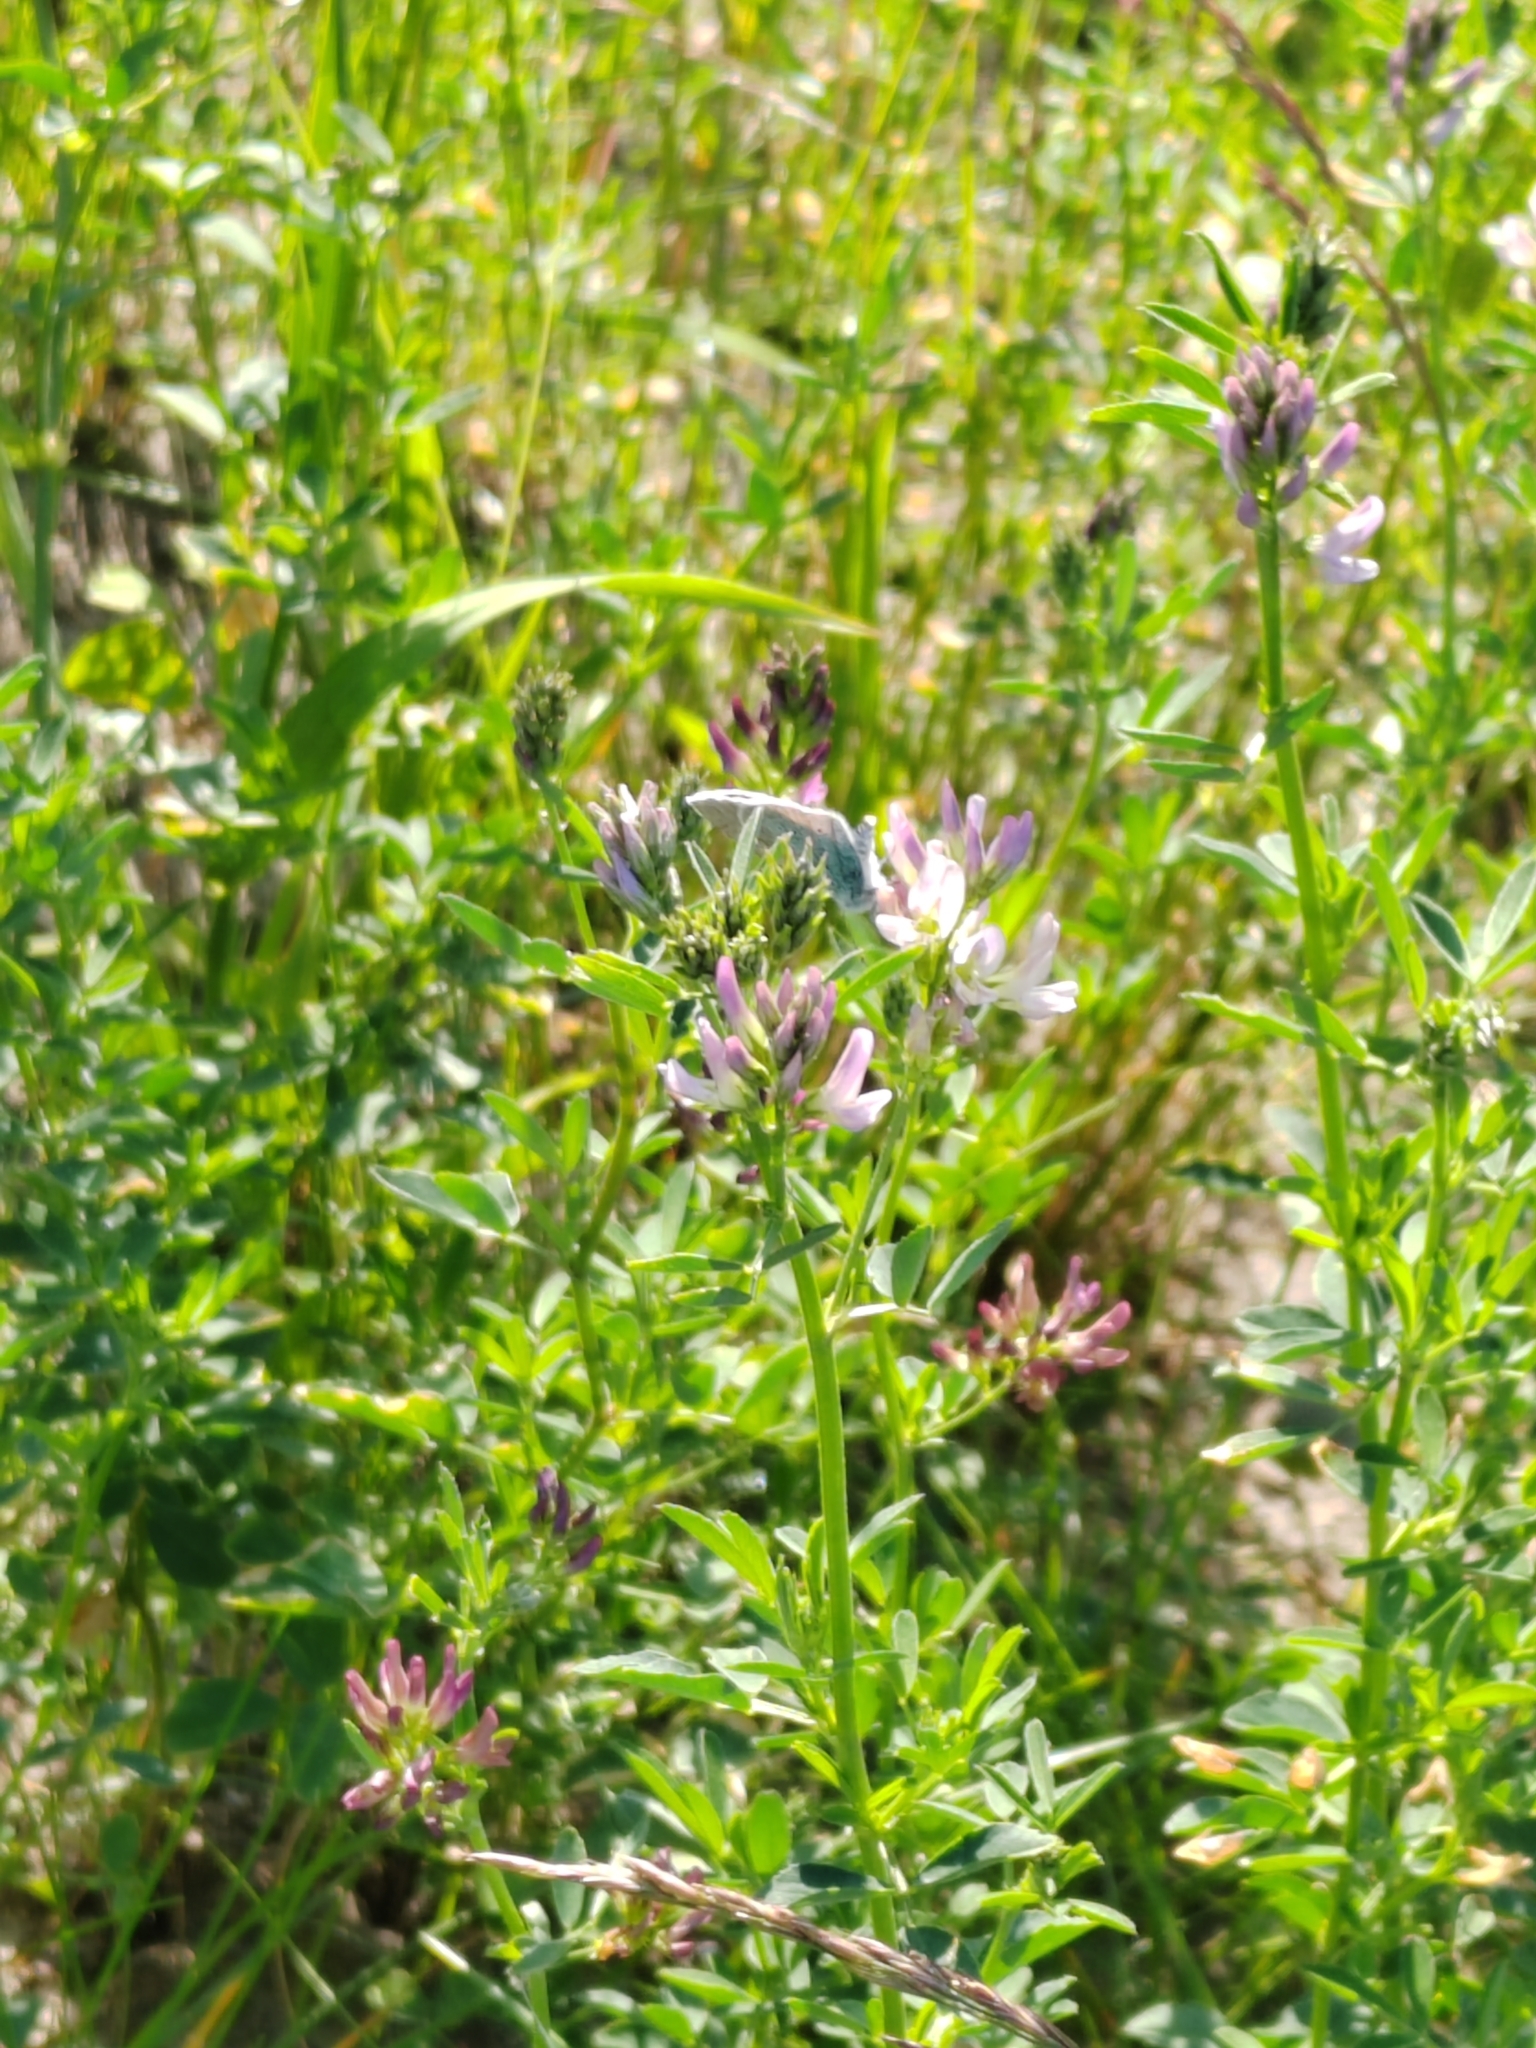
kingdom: Plantae
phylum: Tracheophyta
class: Magnoliopsida
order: Fabales
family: Fabaceae
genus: Medicago
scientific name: Medicago varia
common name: Sand lucerne
